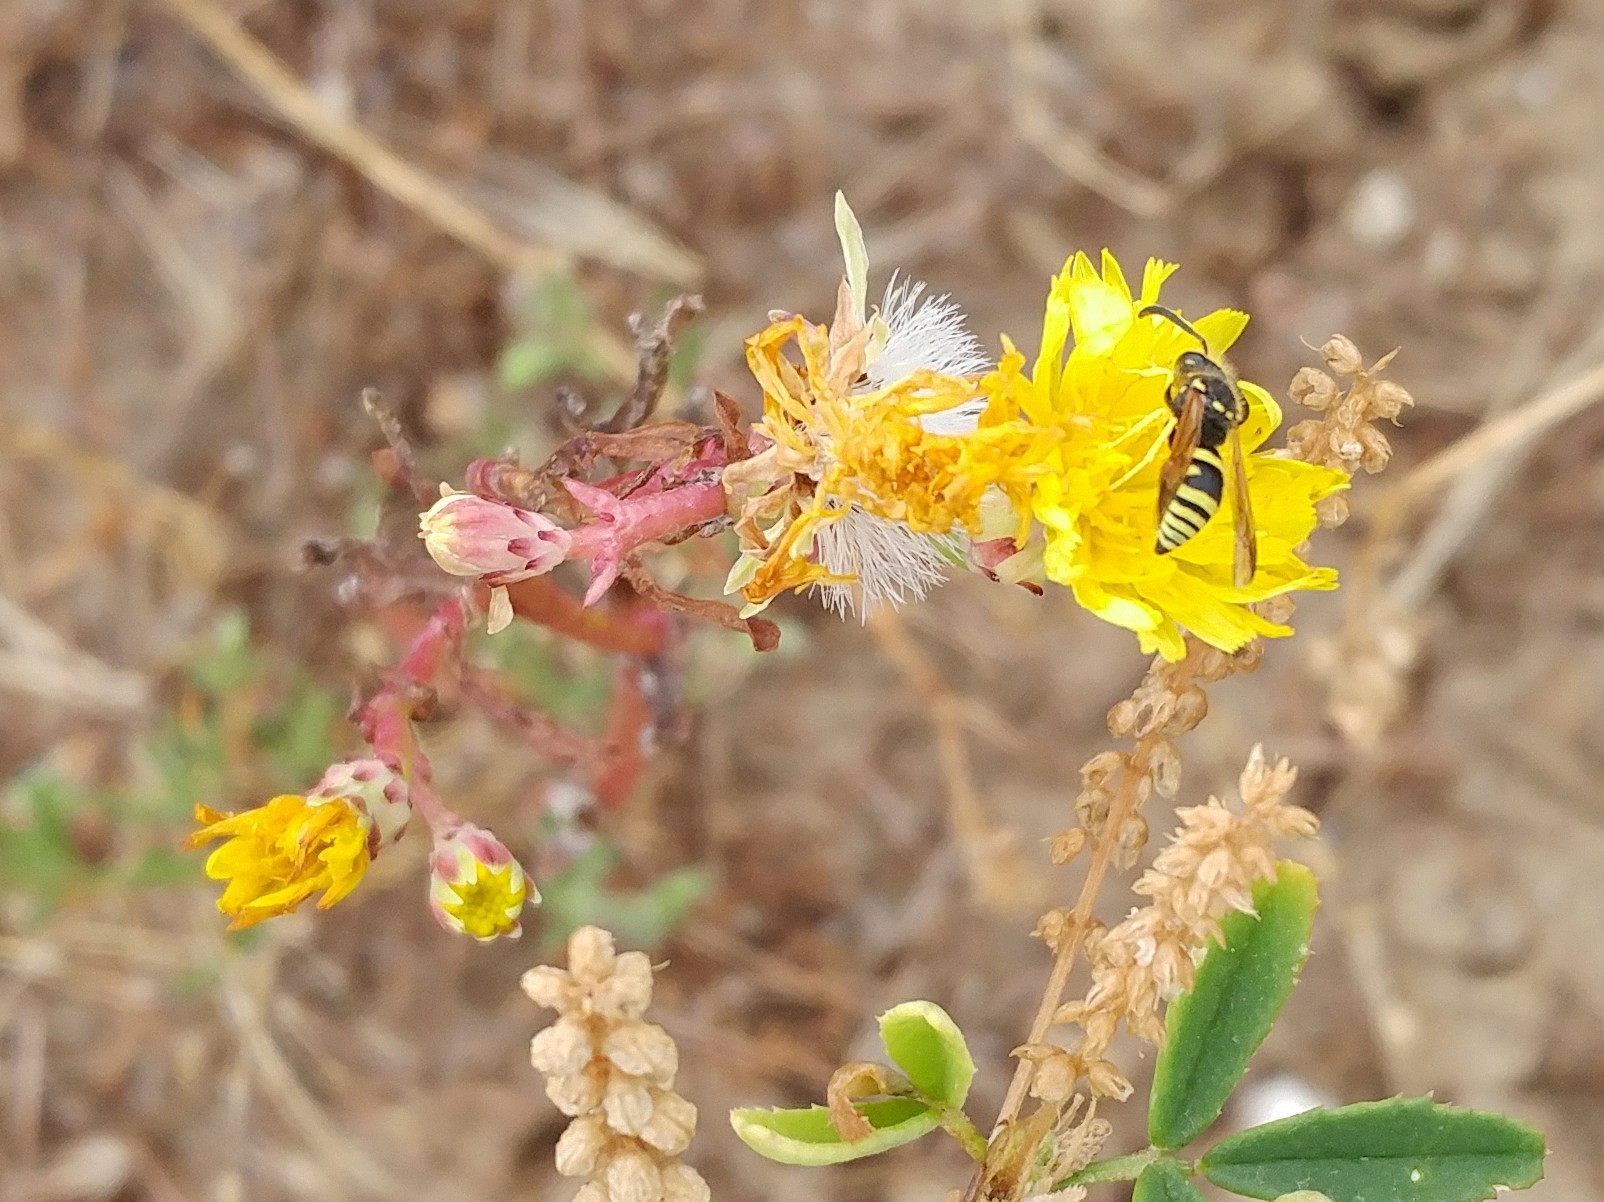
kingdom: Plantae
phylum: Tracheophyta
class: Magnoliopsida
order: Asterales
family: Asteraceae
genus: Malacothrix
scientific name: Malacothrix foliosa
